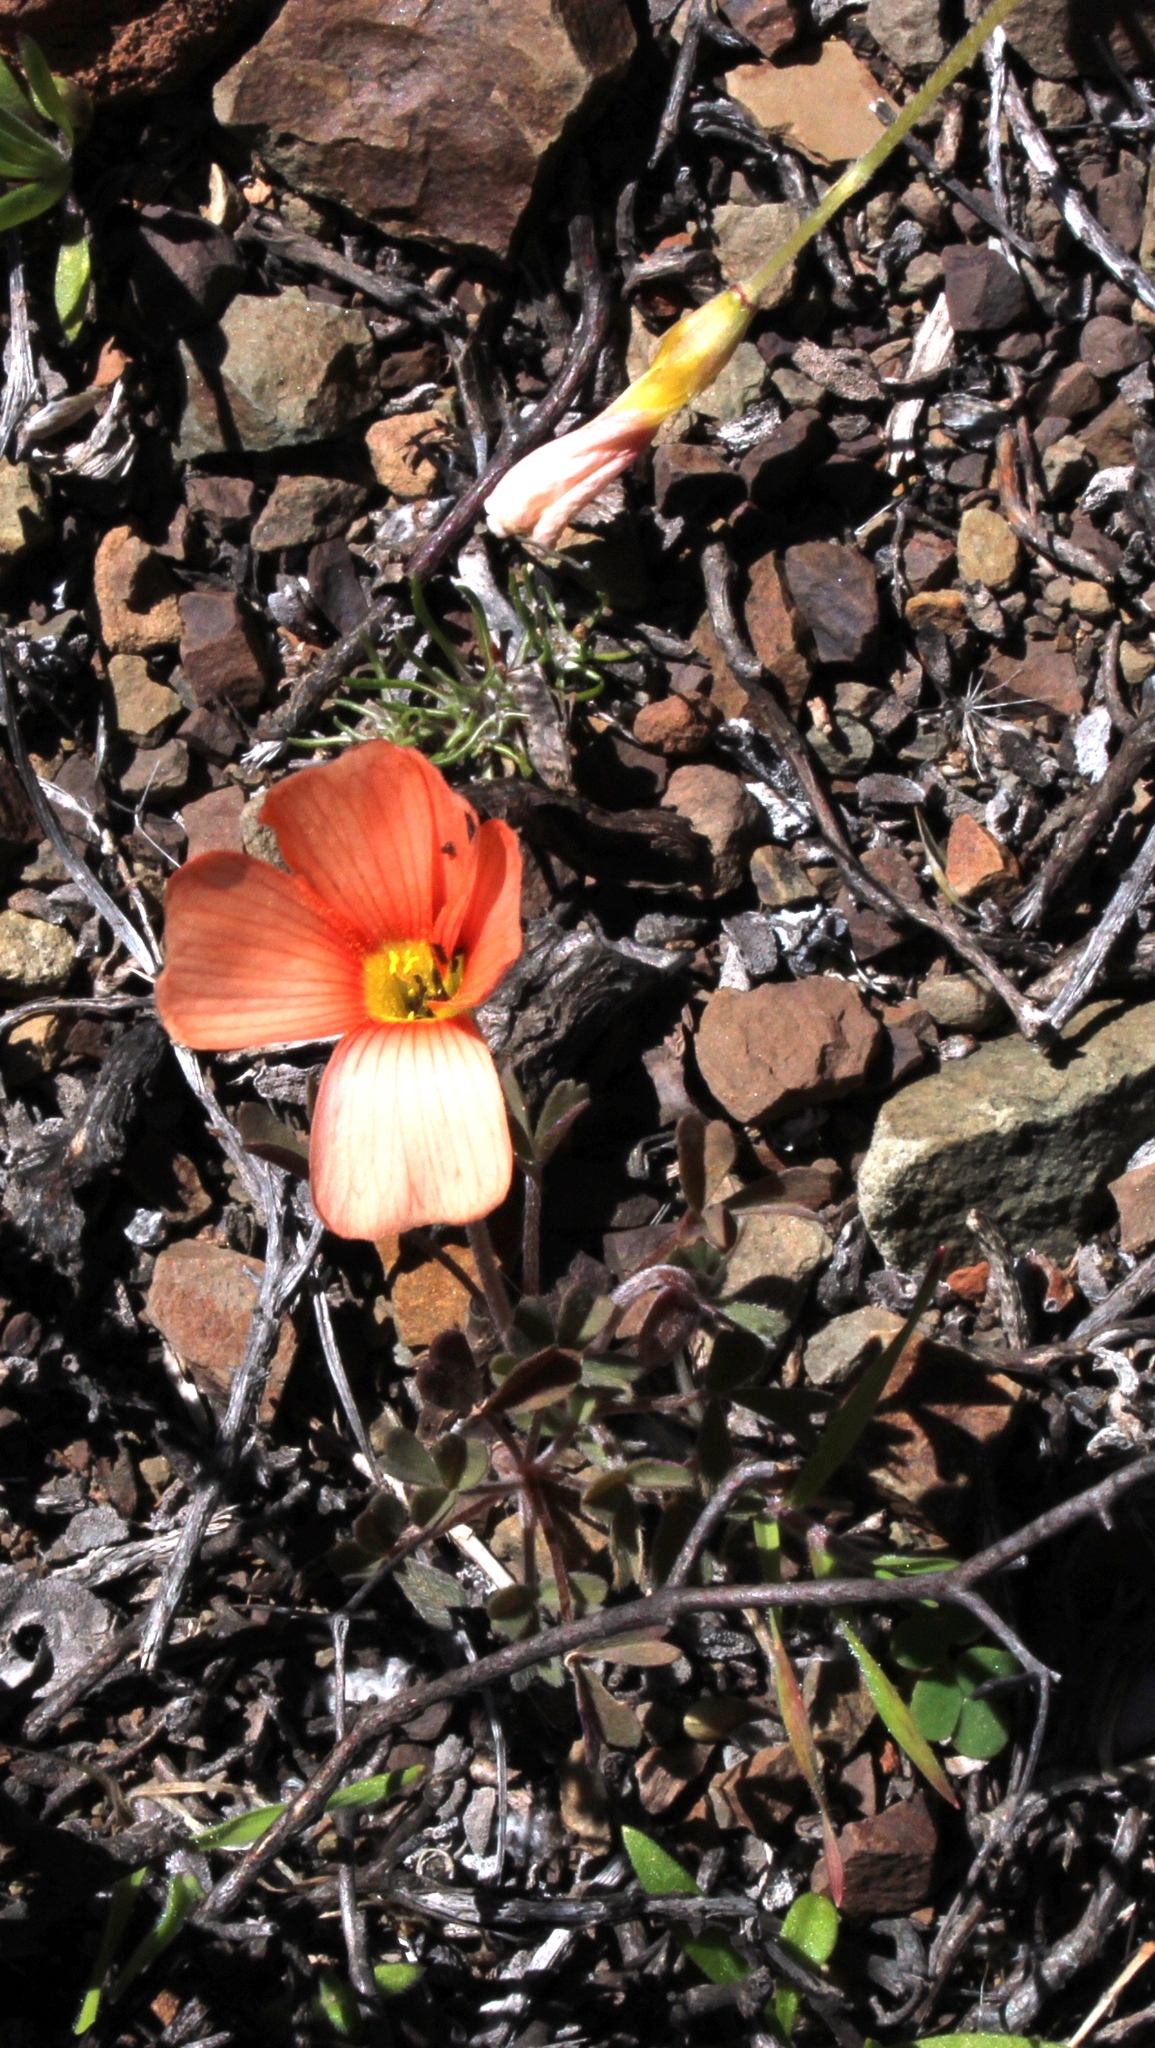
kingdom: Plantae
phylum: Tracheophyta
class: Magnoliopsida
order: Oxalidales
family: Oxalidaceae
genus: Oxalis
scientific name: Oxalis obtusa
